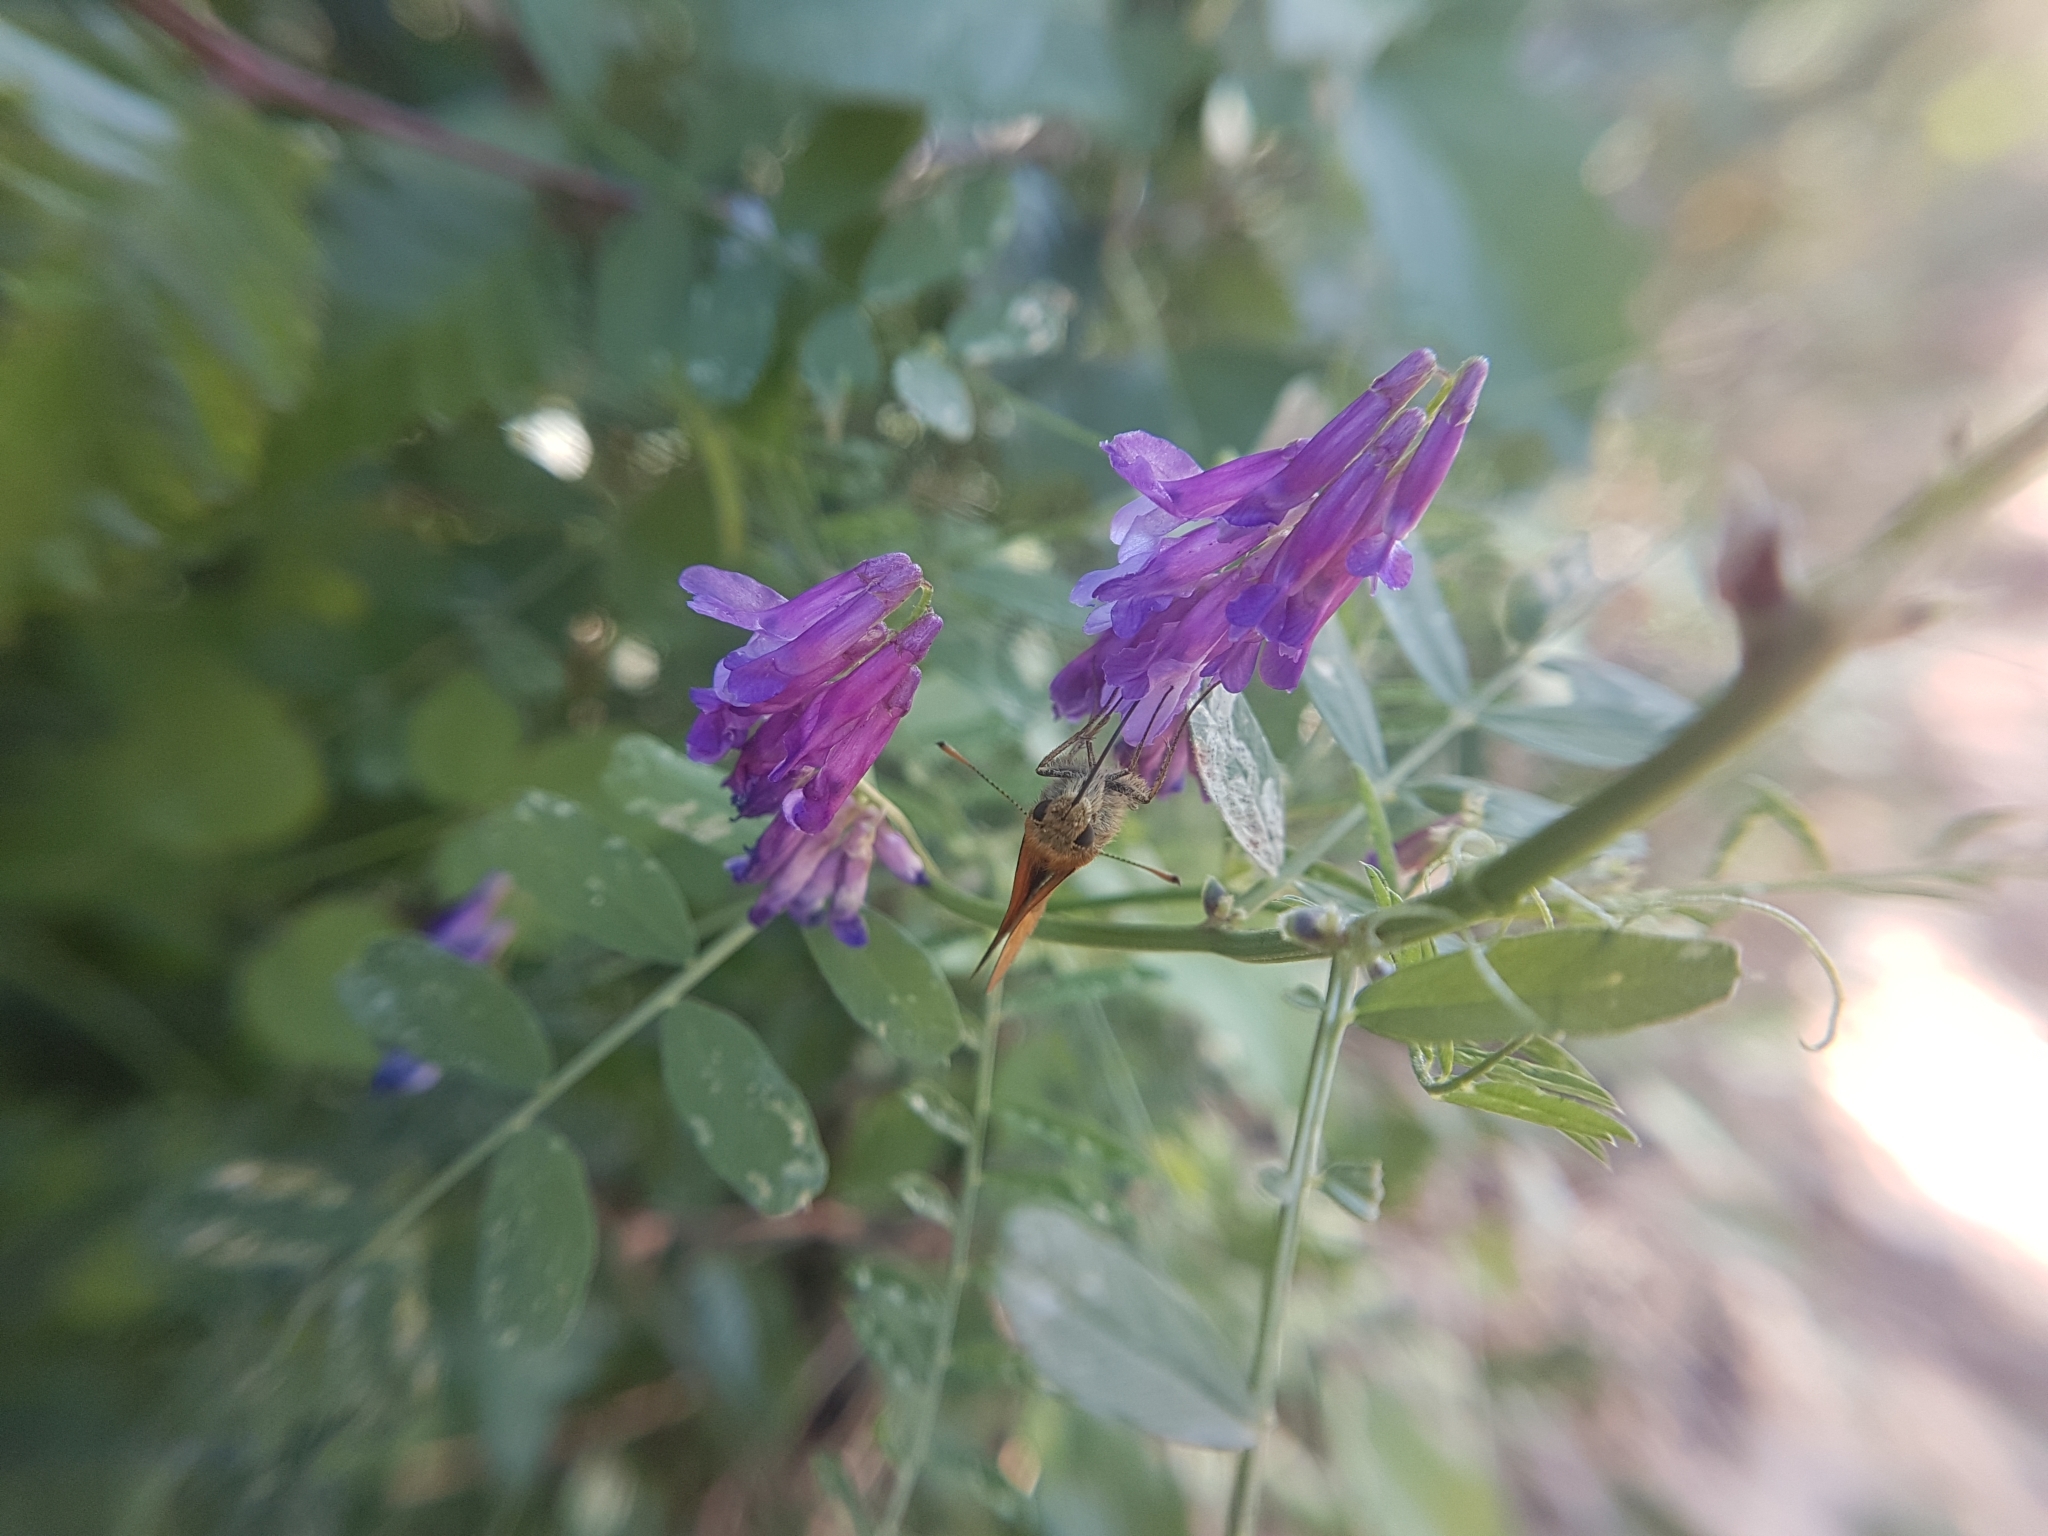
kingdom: Animalia
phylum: Arthropoda
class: Insecta
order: Lepidoptera
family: Hesperiidae
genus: Ochlodes
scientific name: Ochlodes venata
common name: Large skipper
